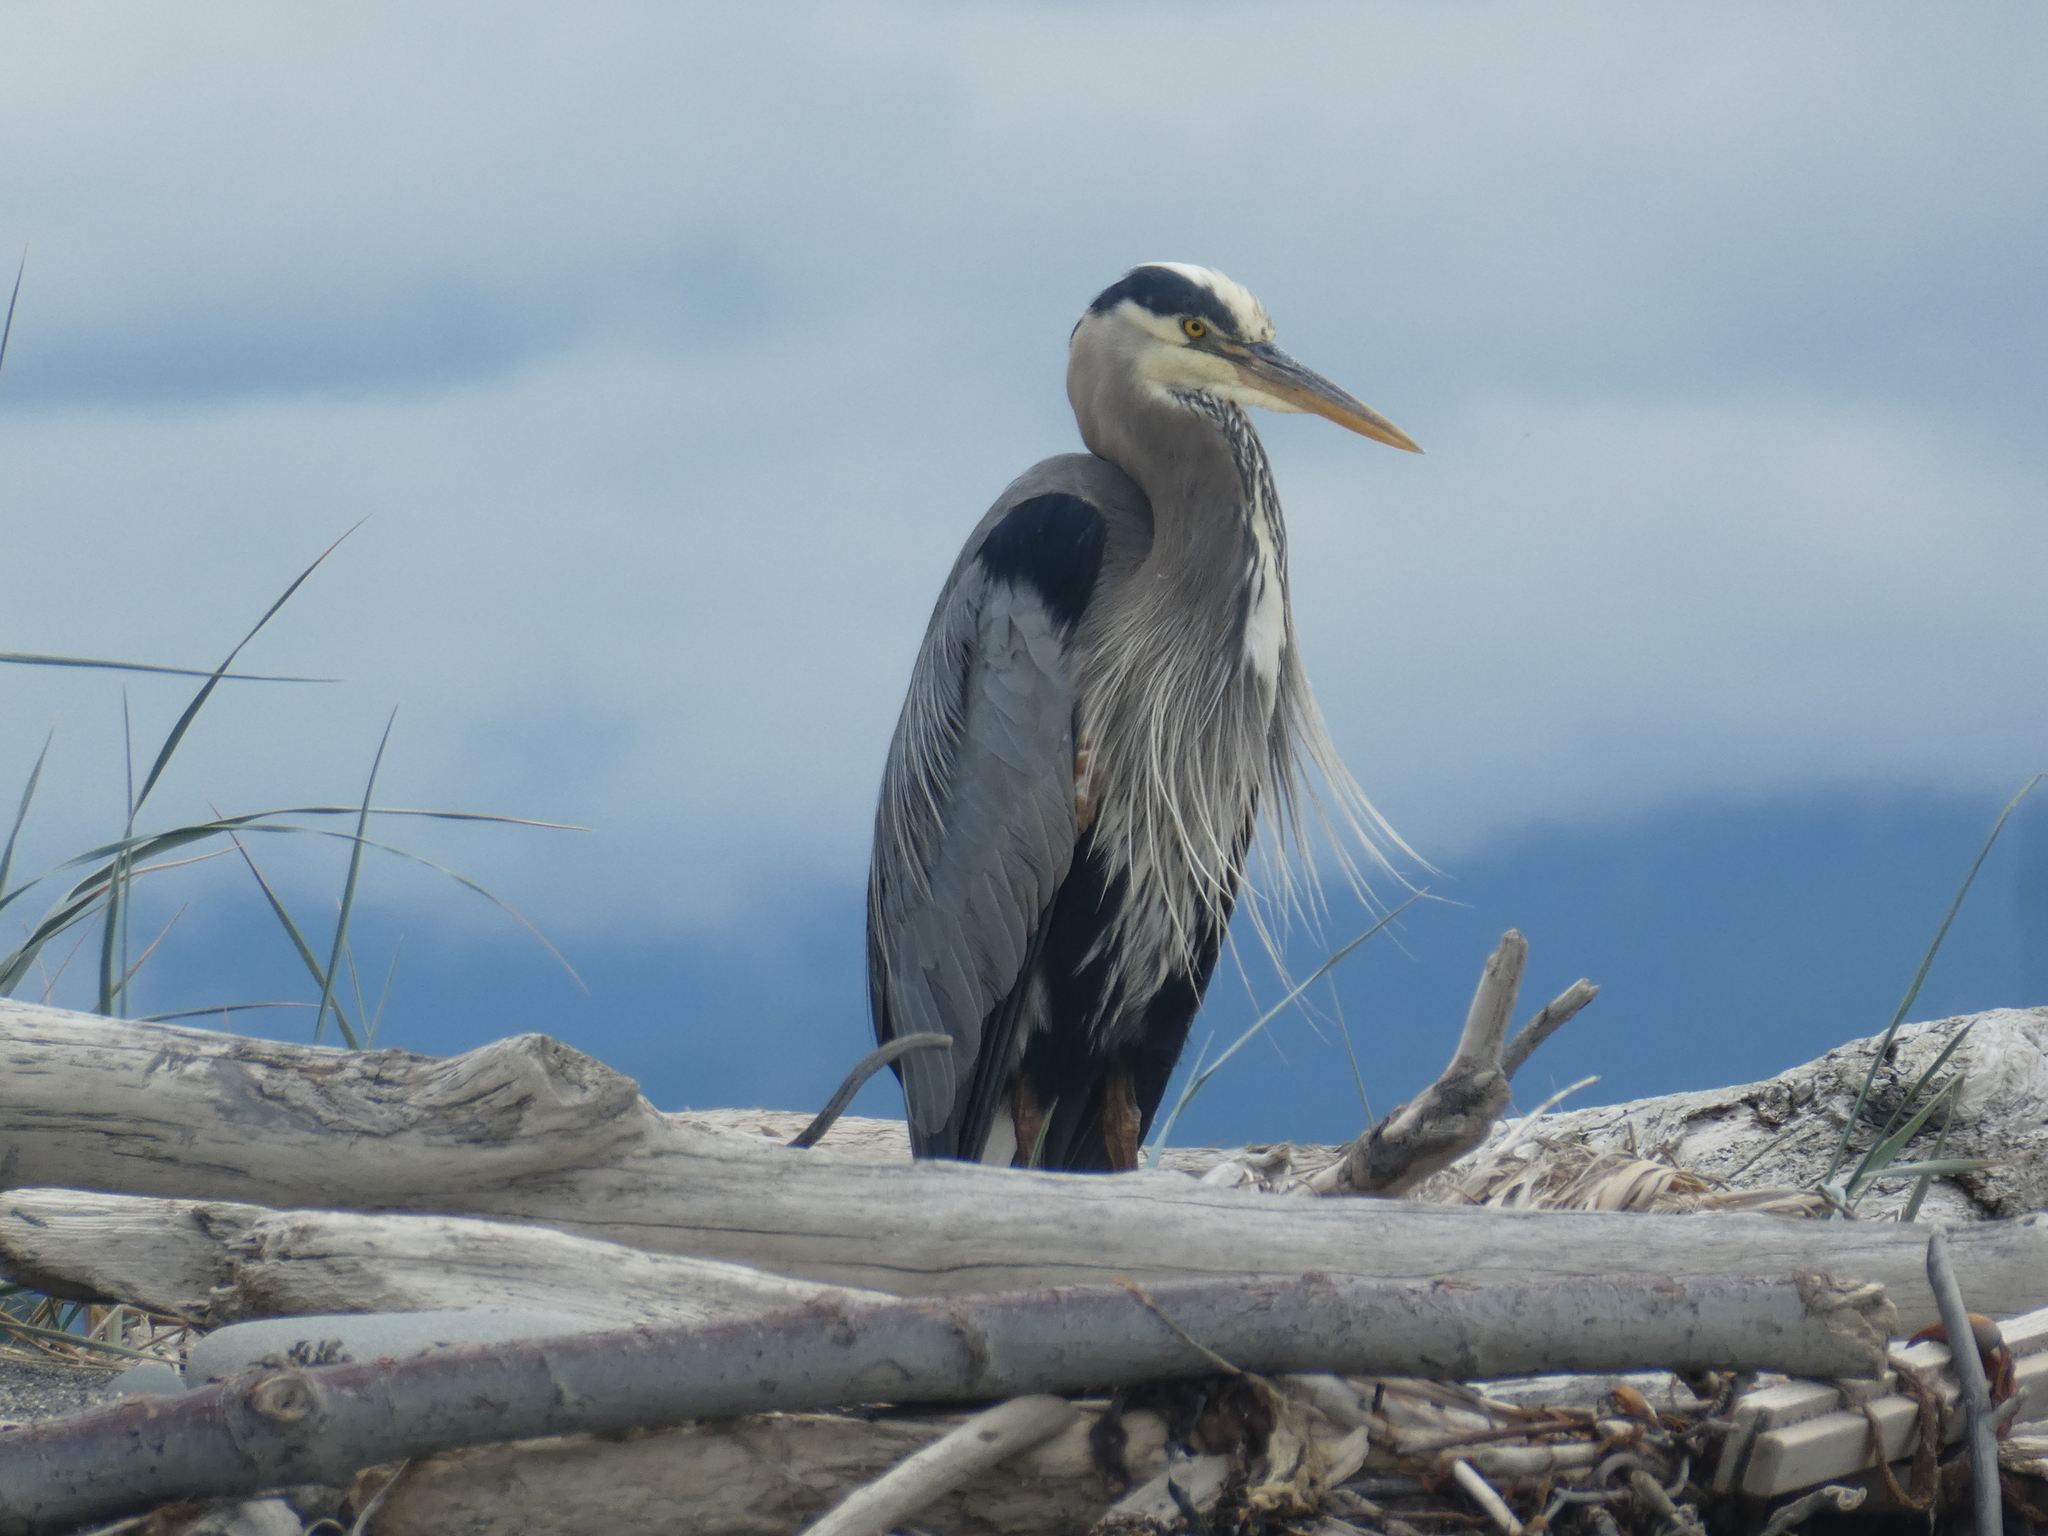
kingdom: Animalia
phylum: Chordata
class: Aves
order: Pelecaniformes
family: Ardeidae
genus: Ardea
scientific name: Ardea herodias
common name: Great blue heron
